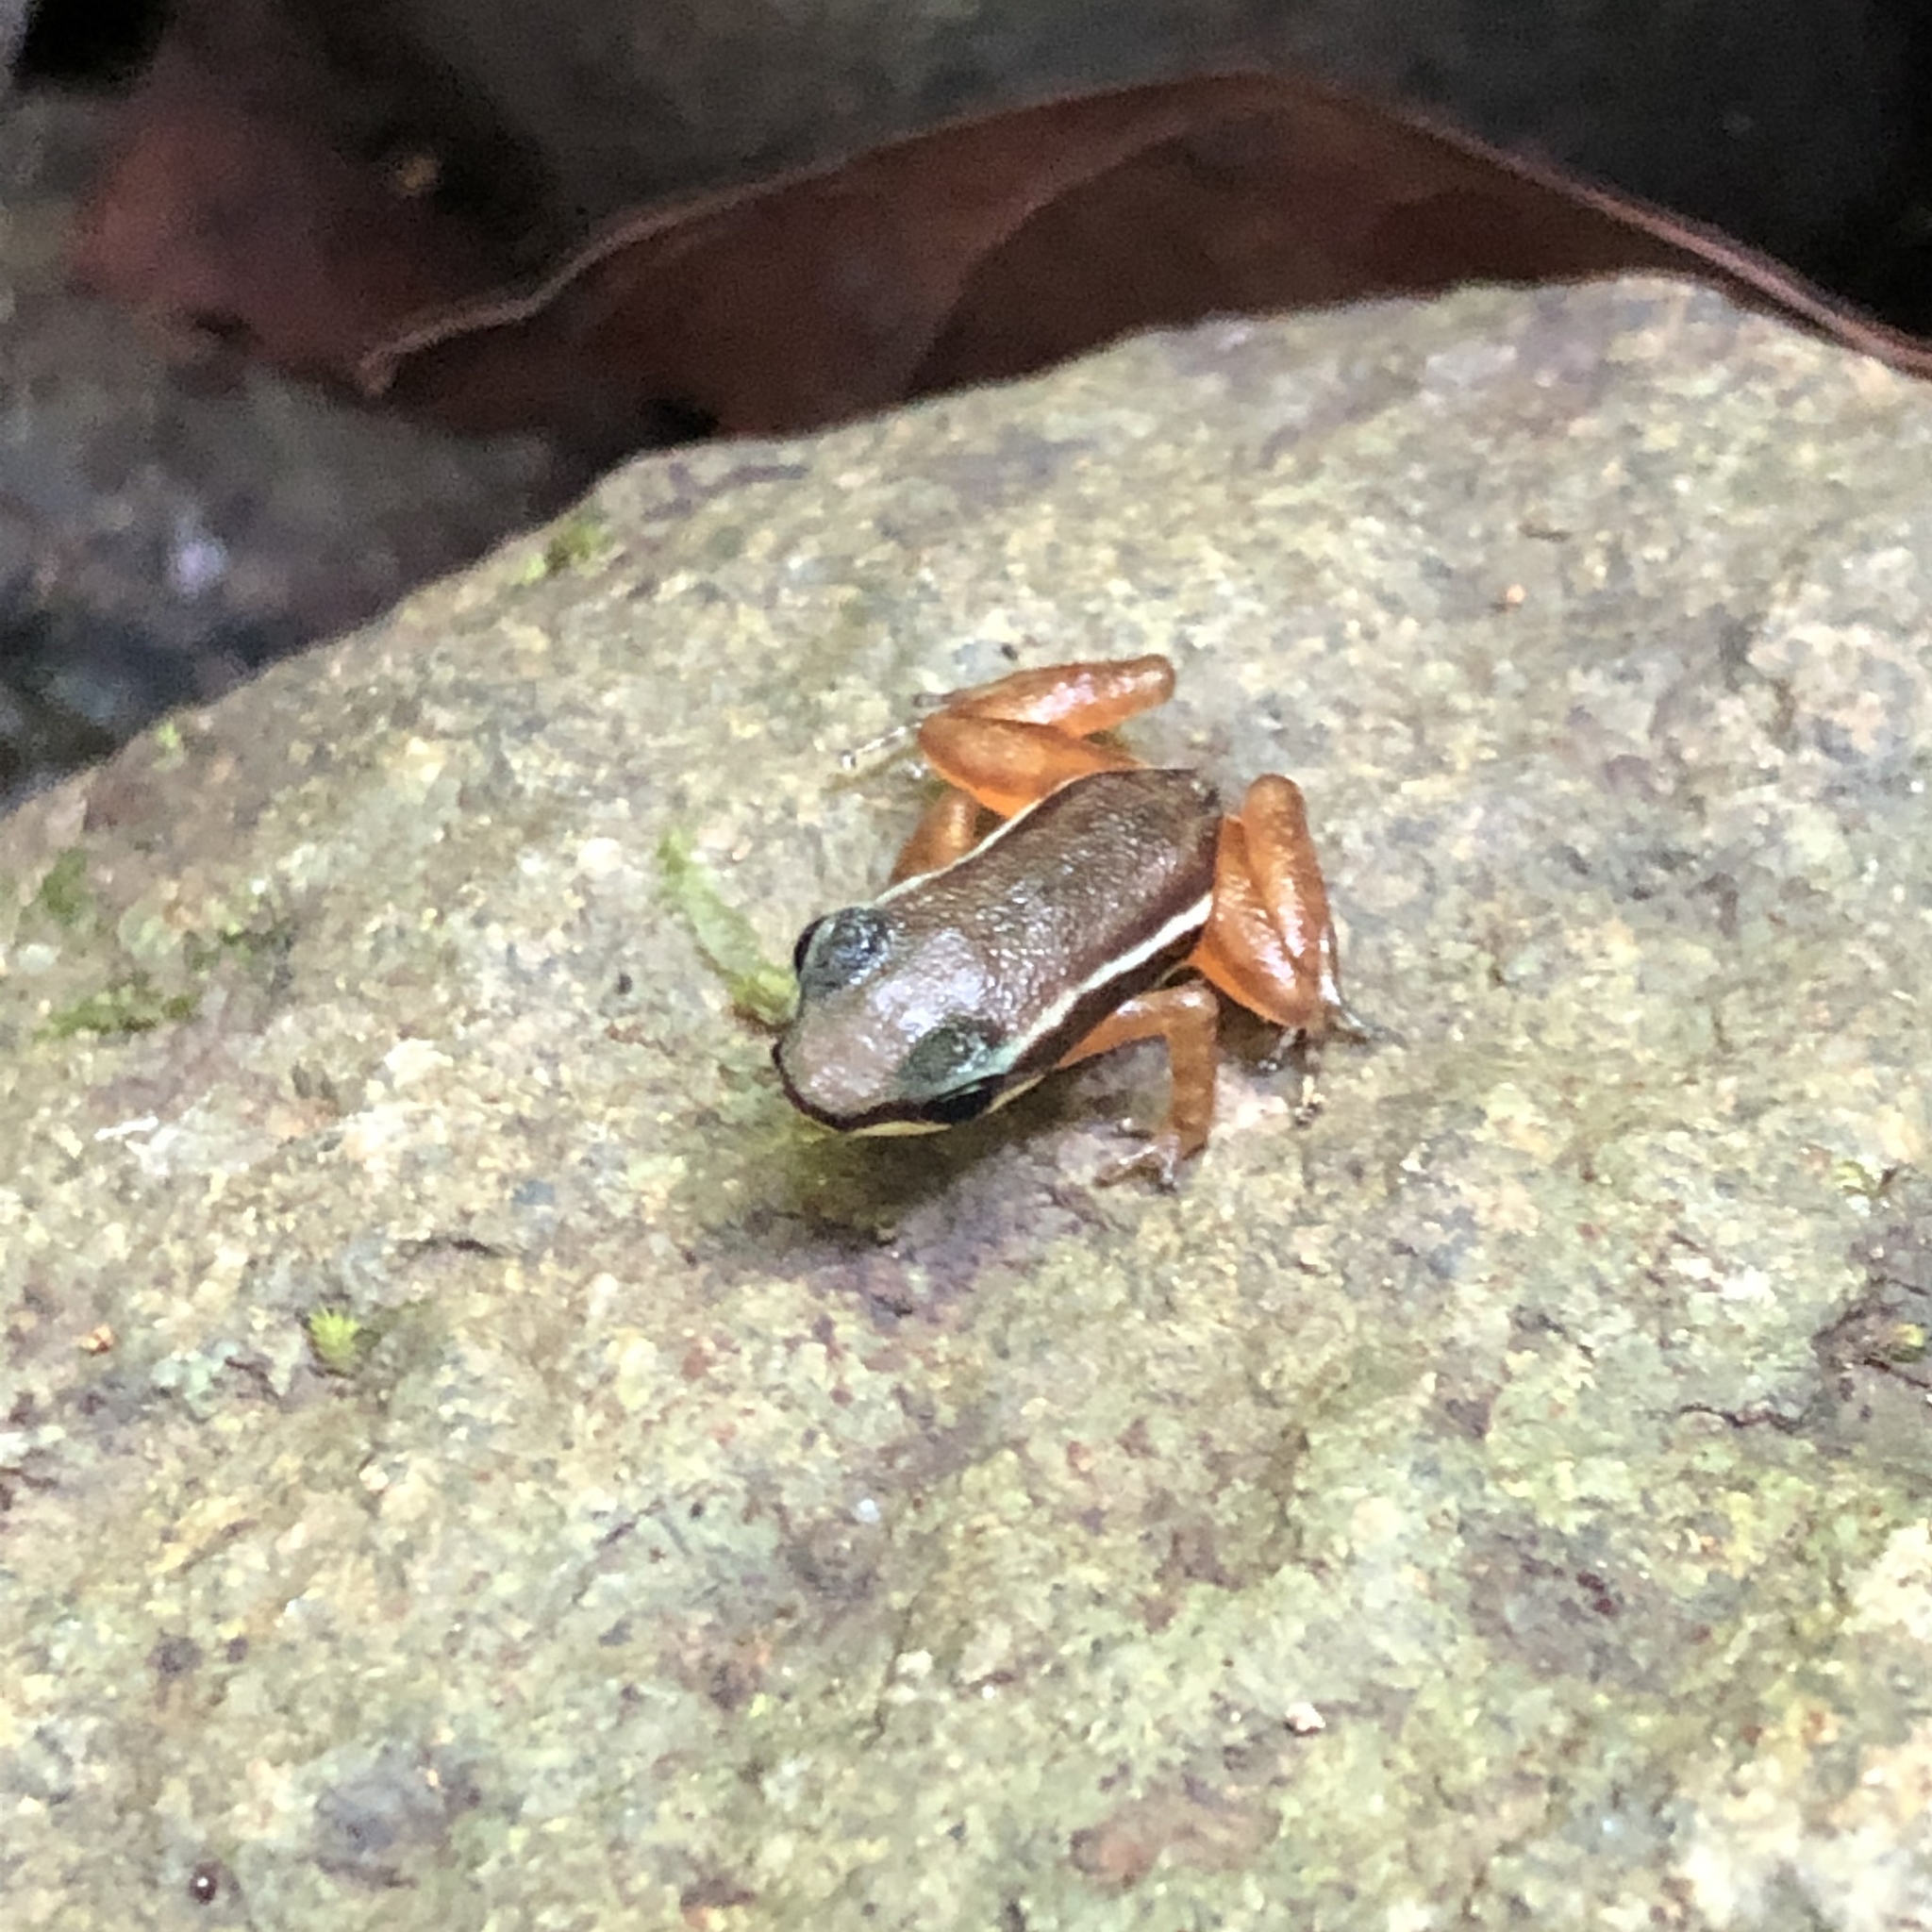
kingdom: Animalia
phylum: Chordata
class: Amphibia
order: Anura
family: Dendrobatidae
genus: Silverstoneia
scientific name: Silverstoneia flotator
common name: Rainforest rocket frog
